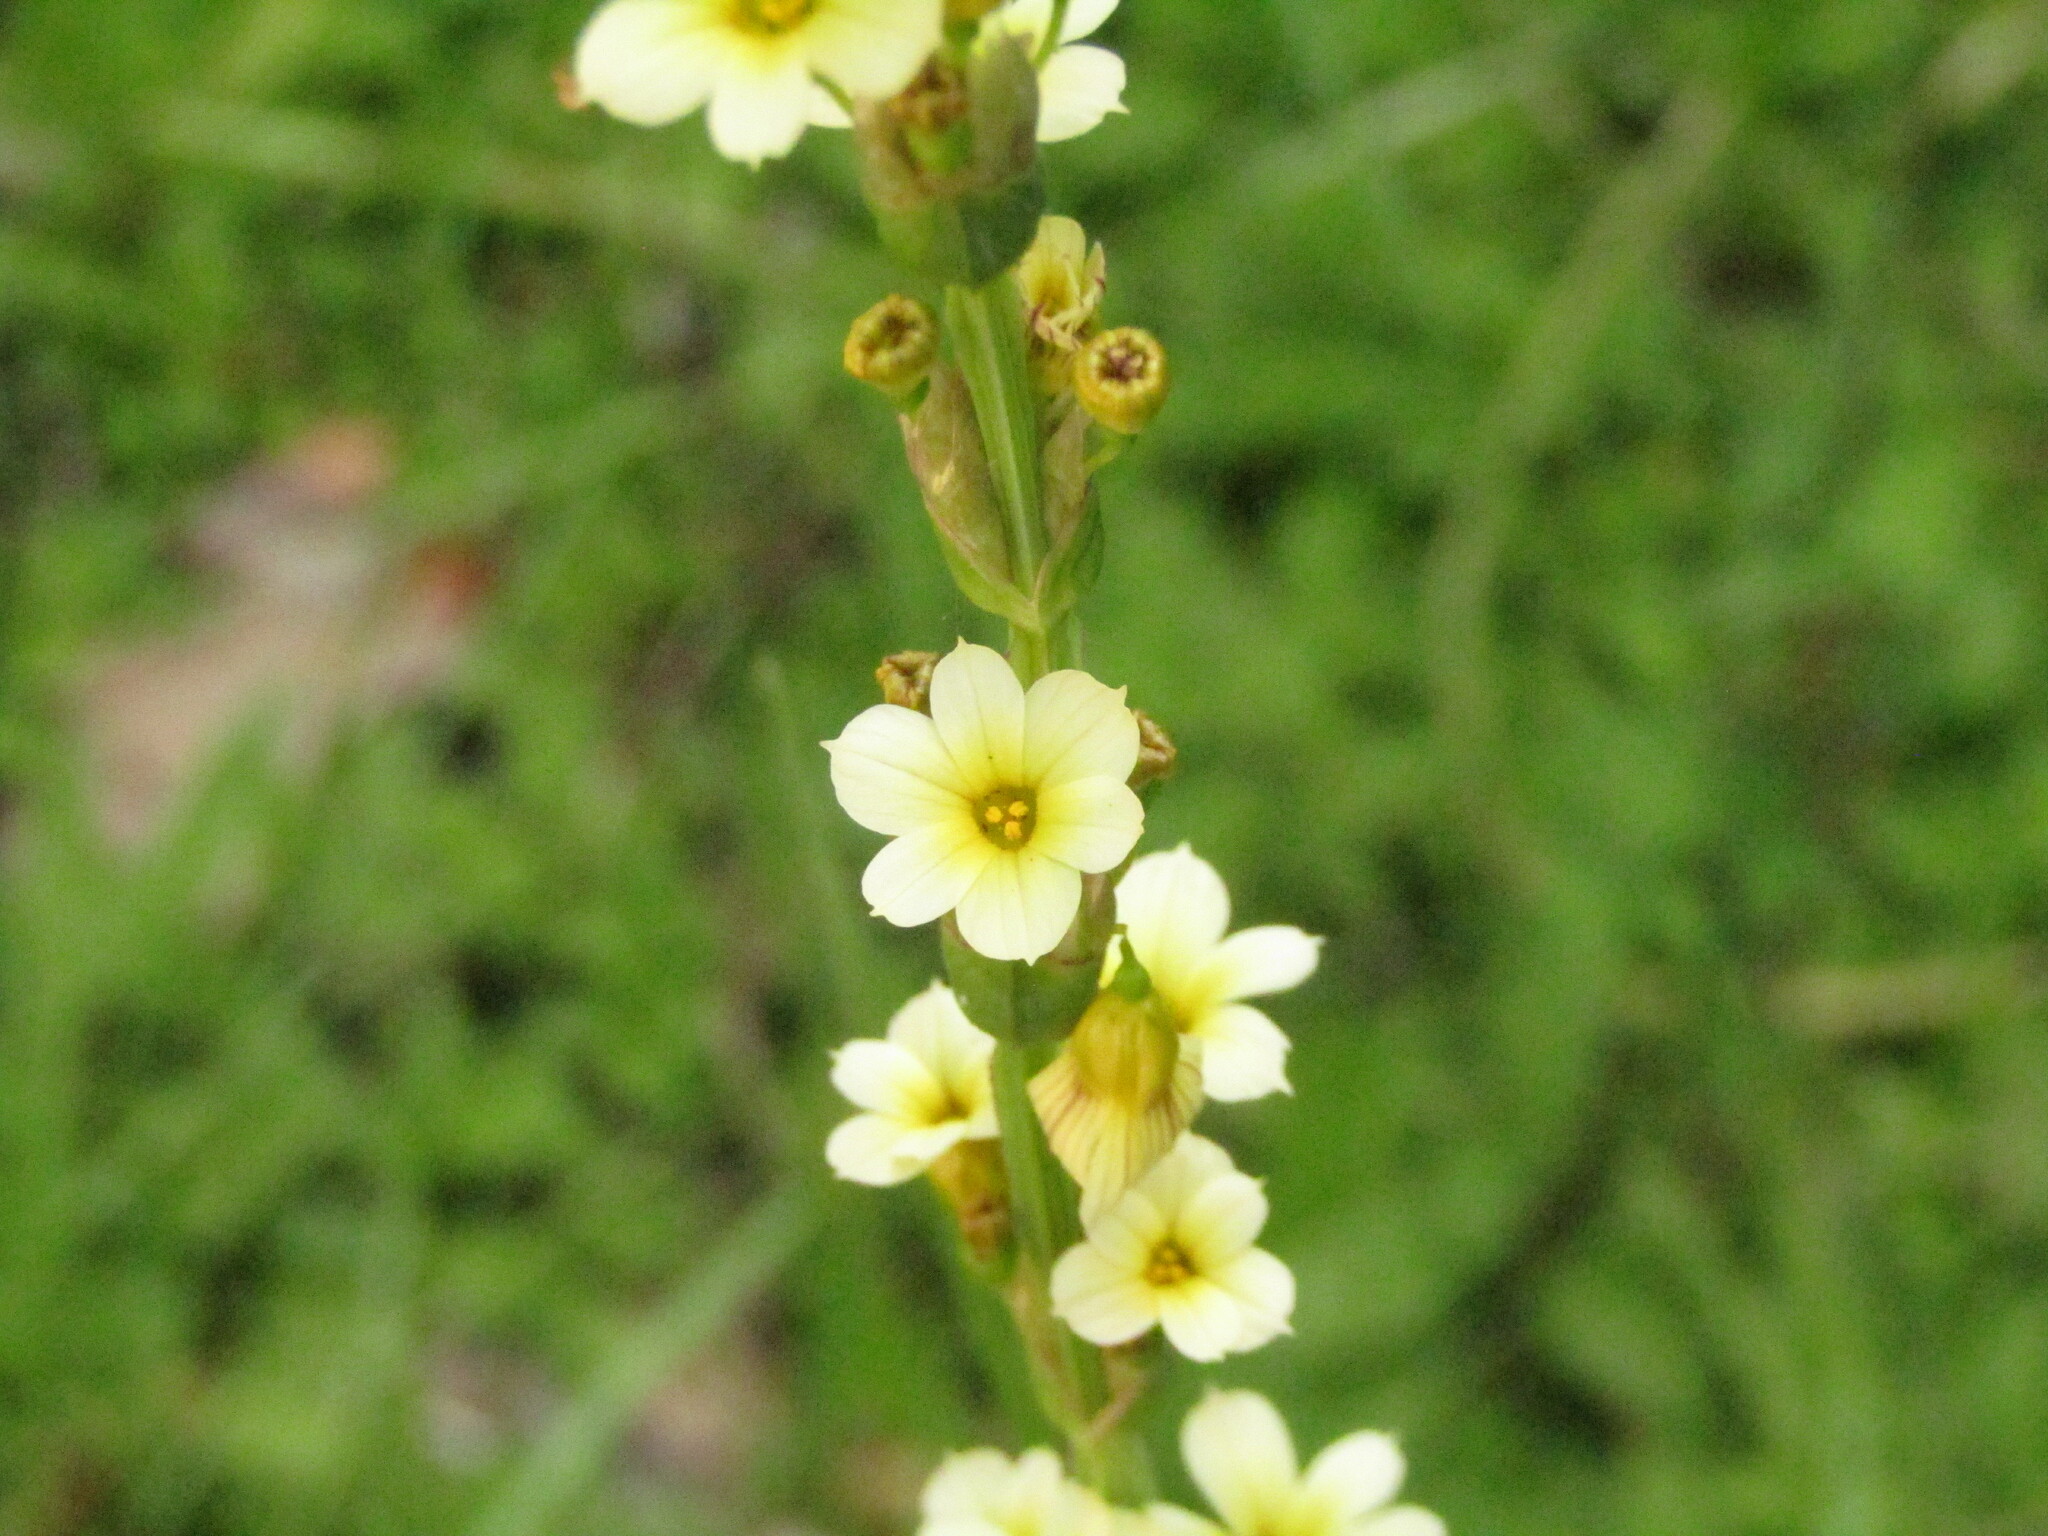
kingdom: Plantae
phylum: Tracheophyta
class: Liliopsida
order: Asparagales
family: Iridaceae
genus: Sisyrinchium
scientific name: Sisyrinchium striatum
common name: Pale yellow-eyed-grass
